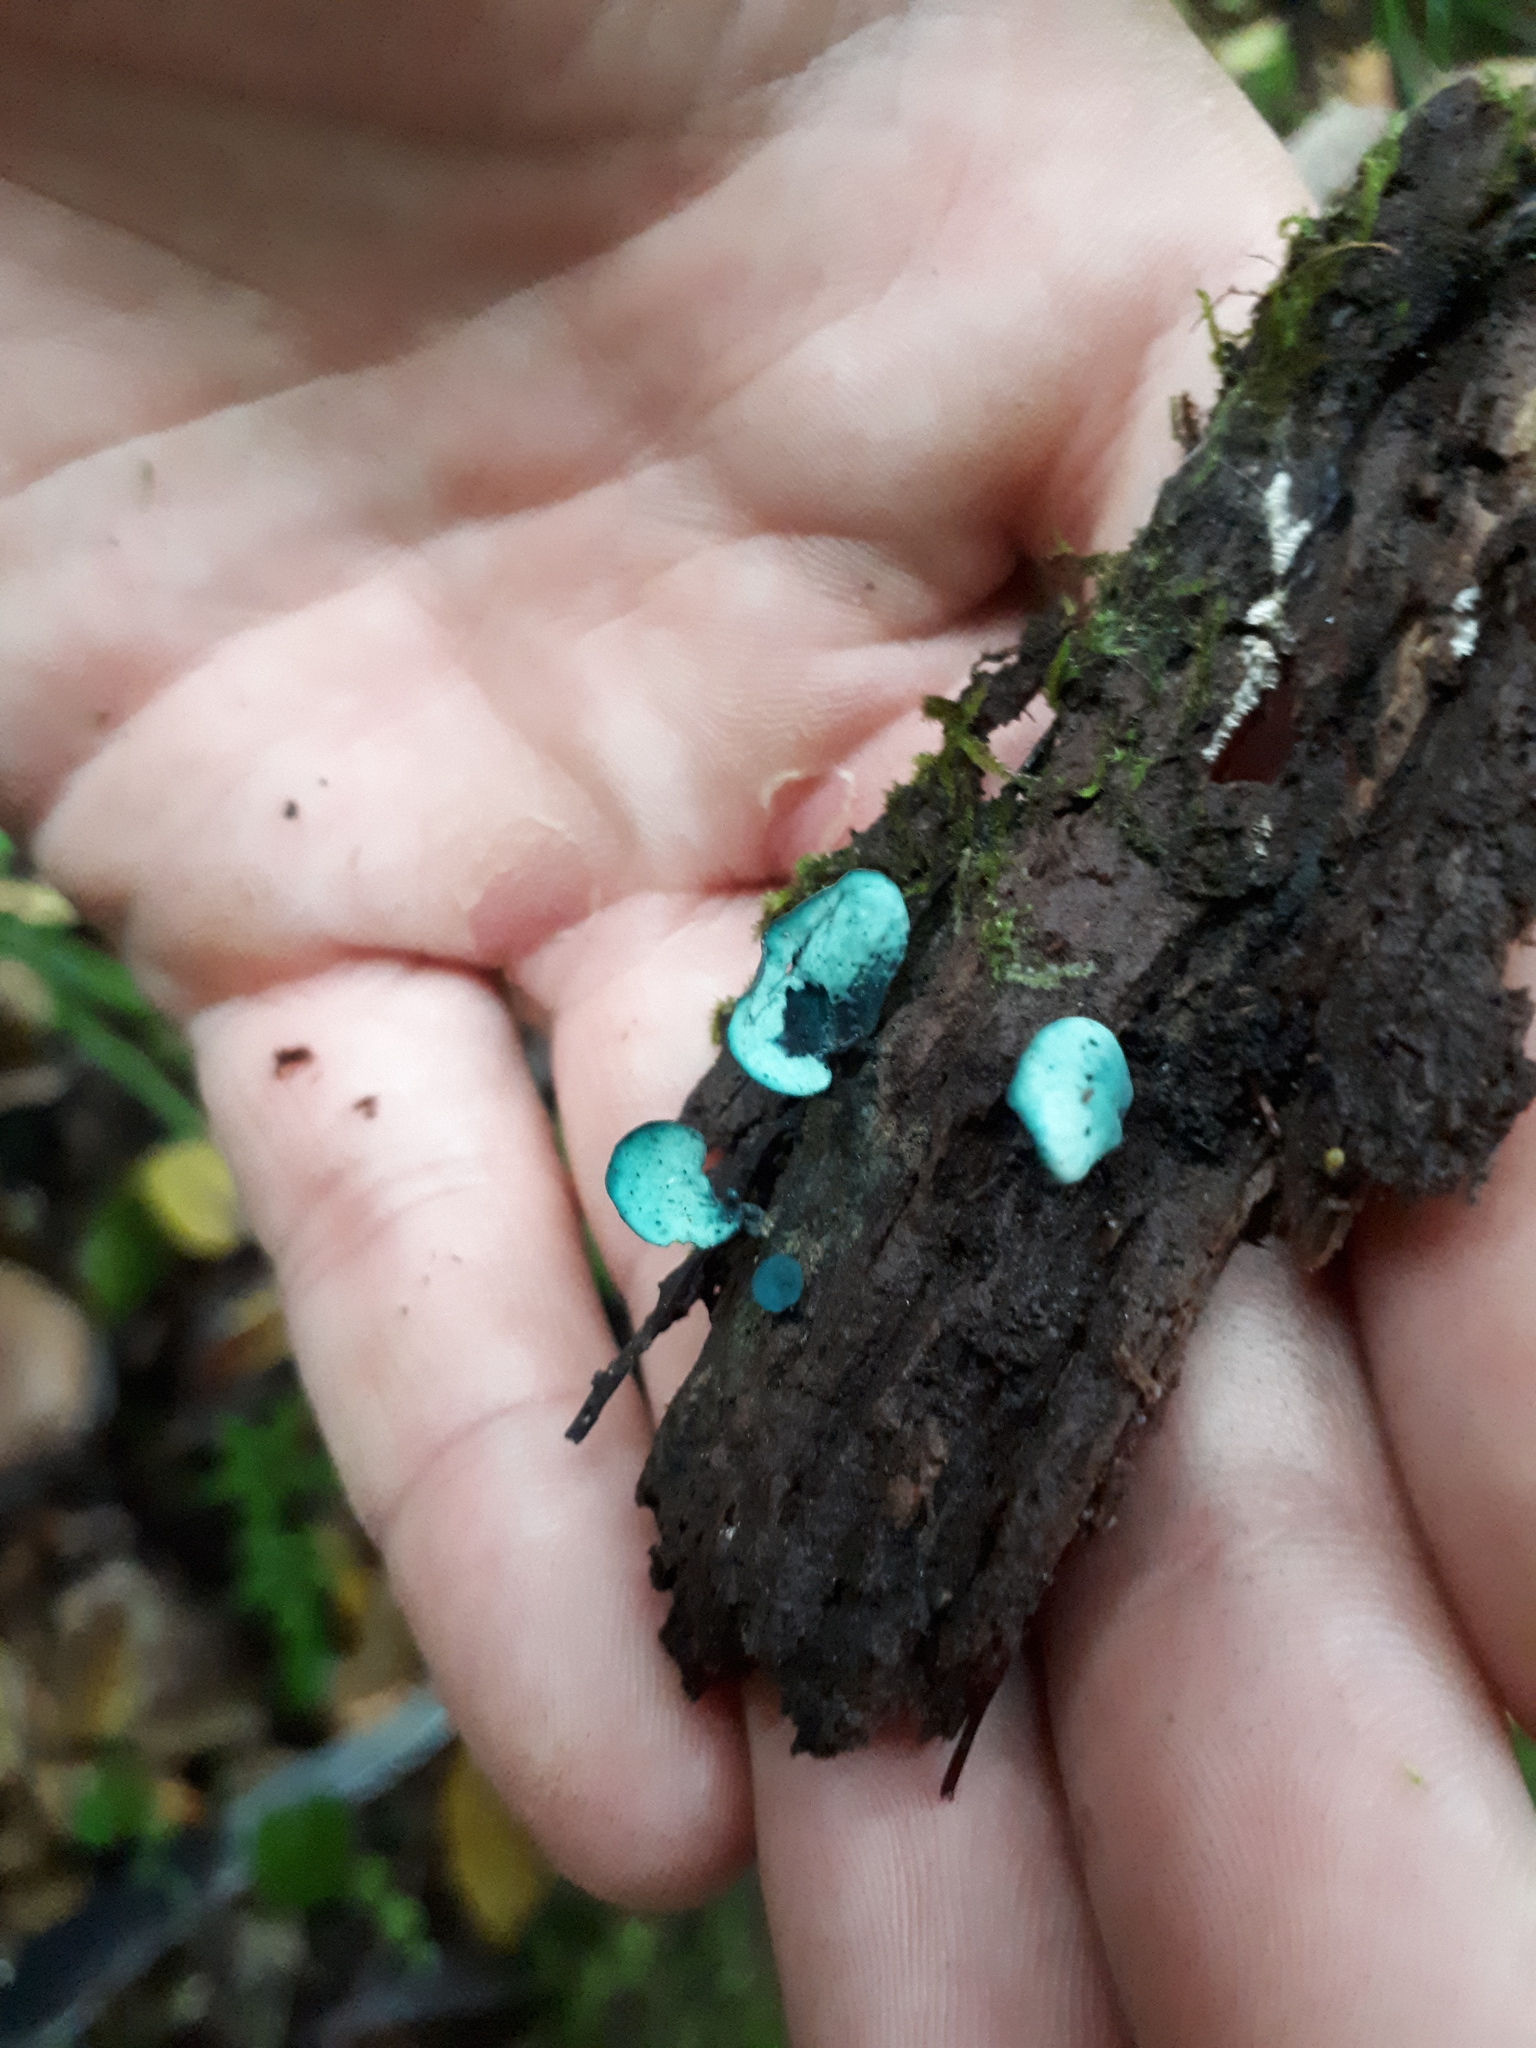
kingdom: Fungi
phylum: Ascomycota
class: Leotiomycetes
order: Helotiales
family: Chlorociboriaceae
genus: Chlorociboria
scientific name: Chlorociboria aeruginascens
